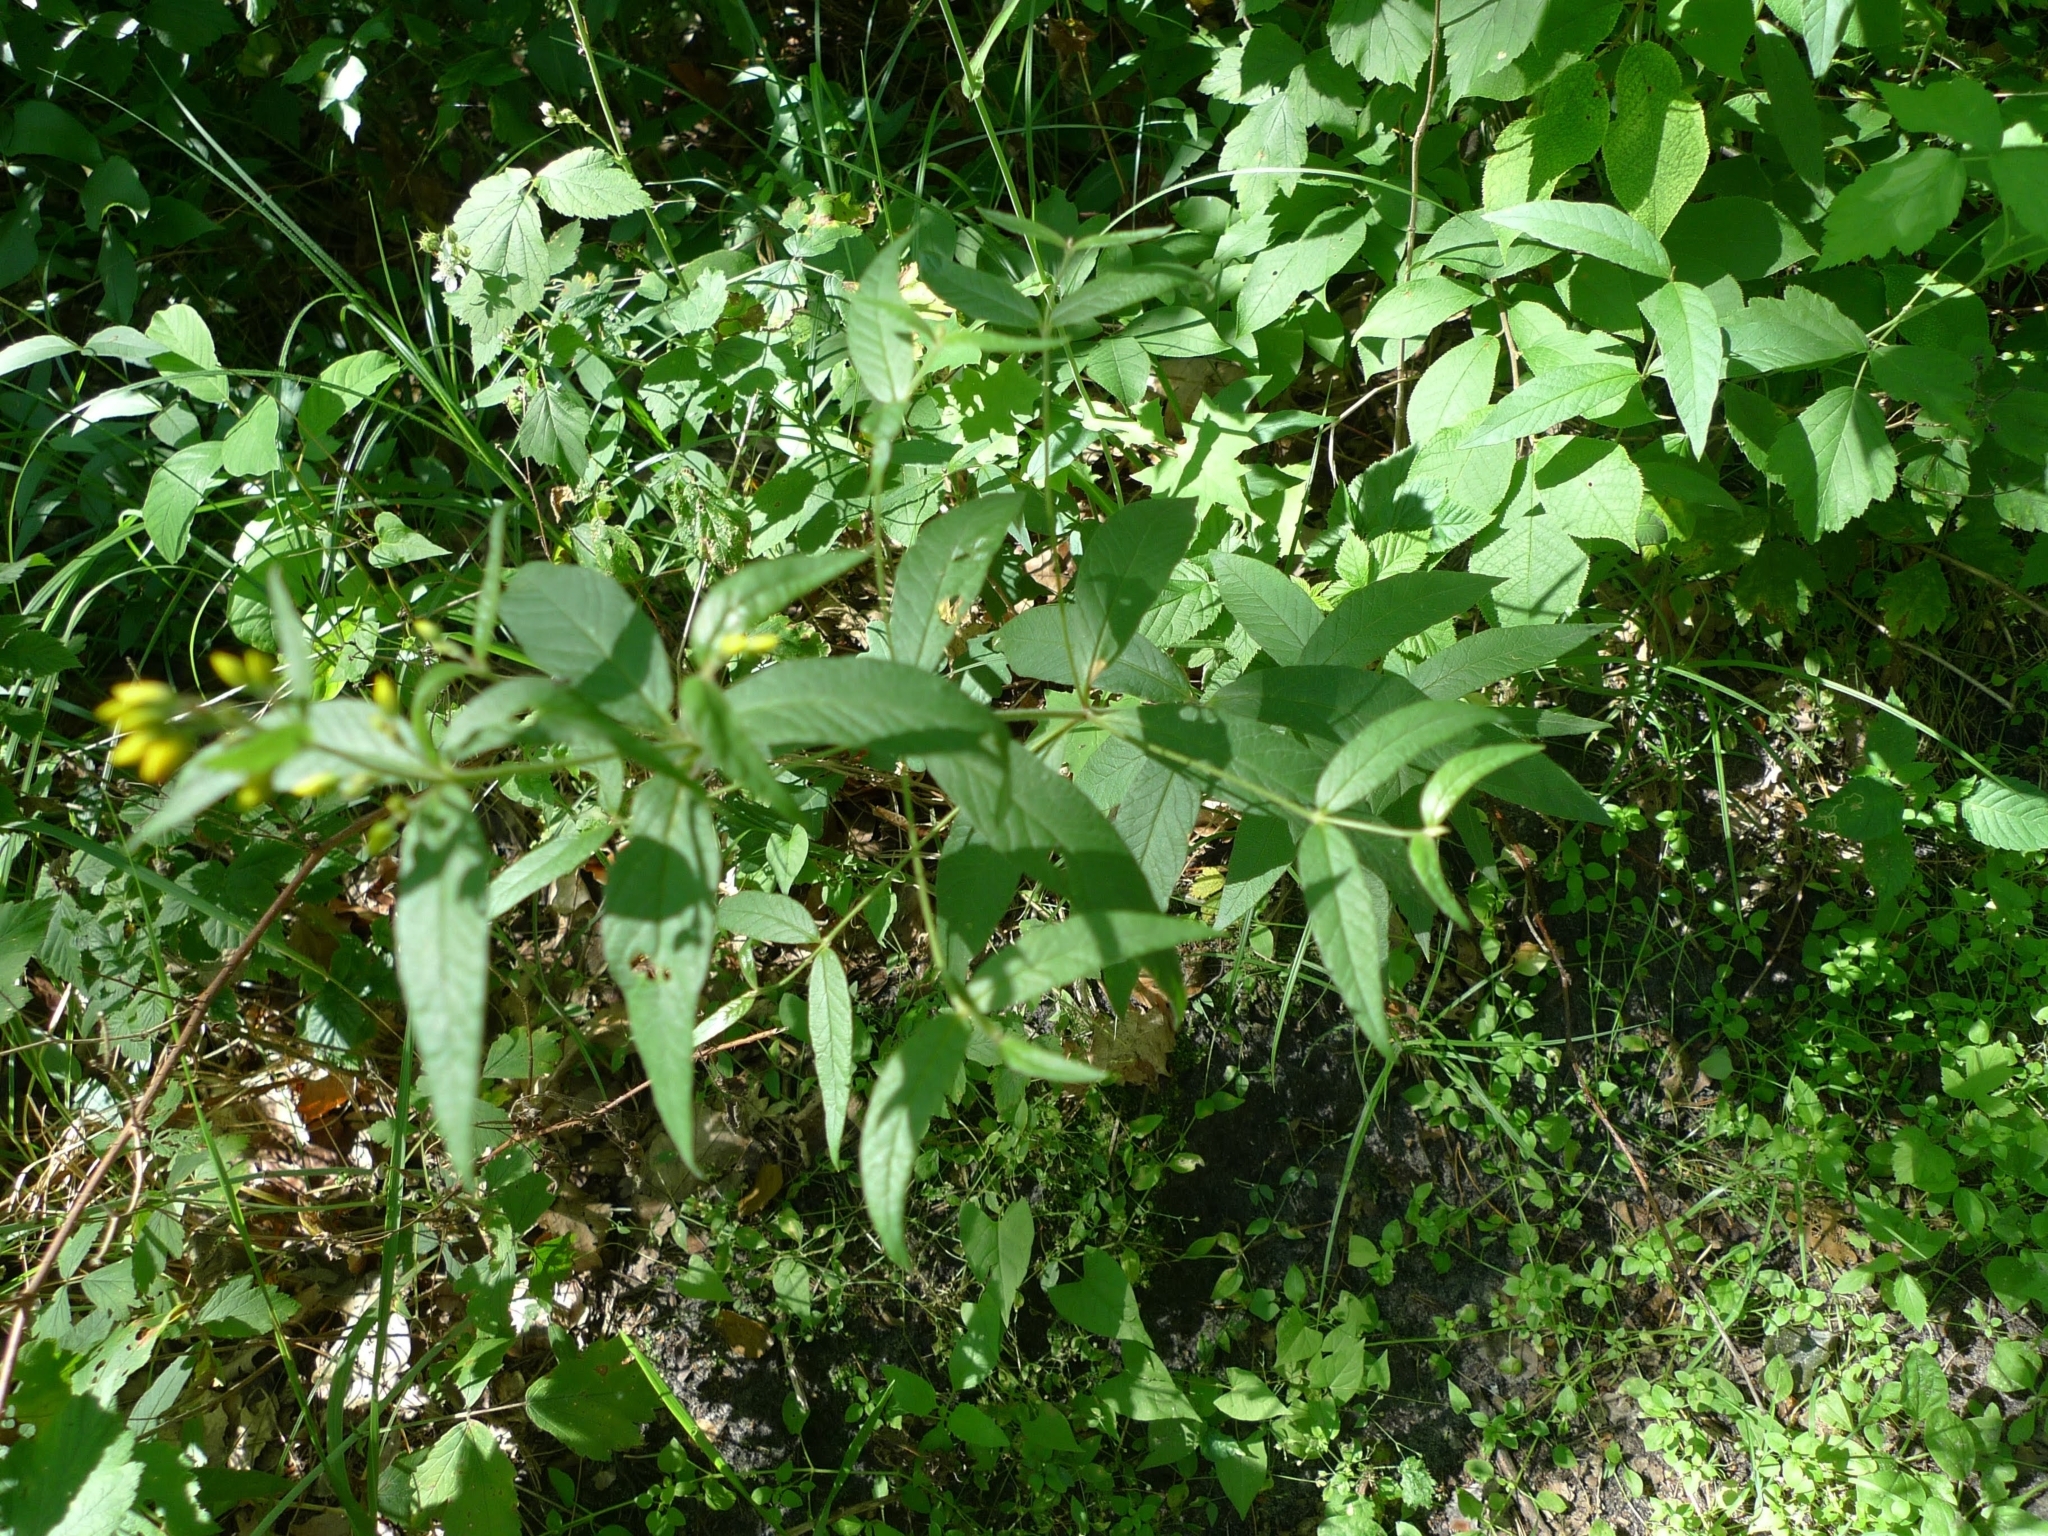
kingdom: Plantae
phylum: Tracheophyta
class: Magnoliopsida
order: Ericales
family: Primulaceae
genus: Lysimachia
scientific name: Lysimachia vulgaris
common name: Yellow loosestrife
